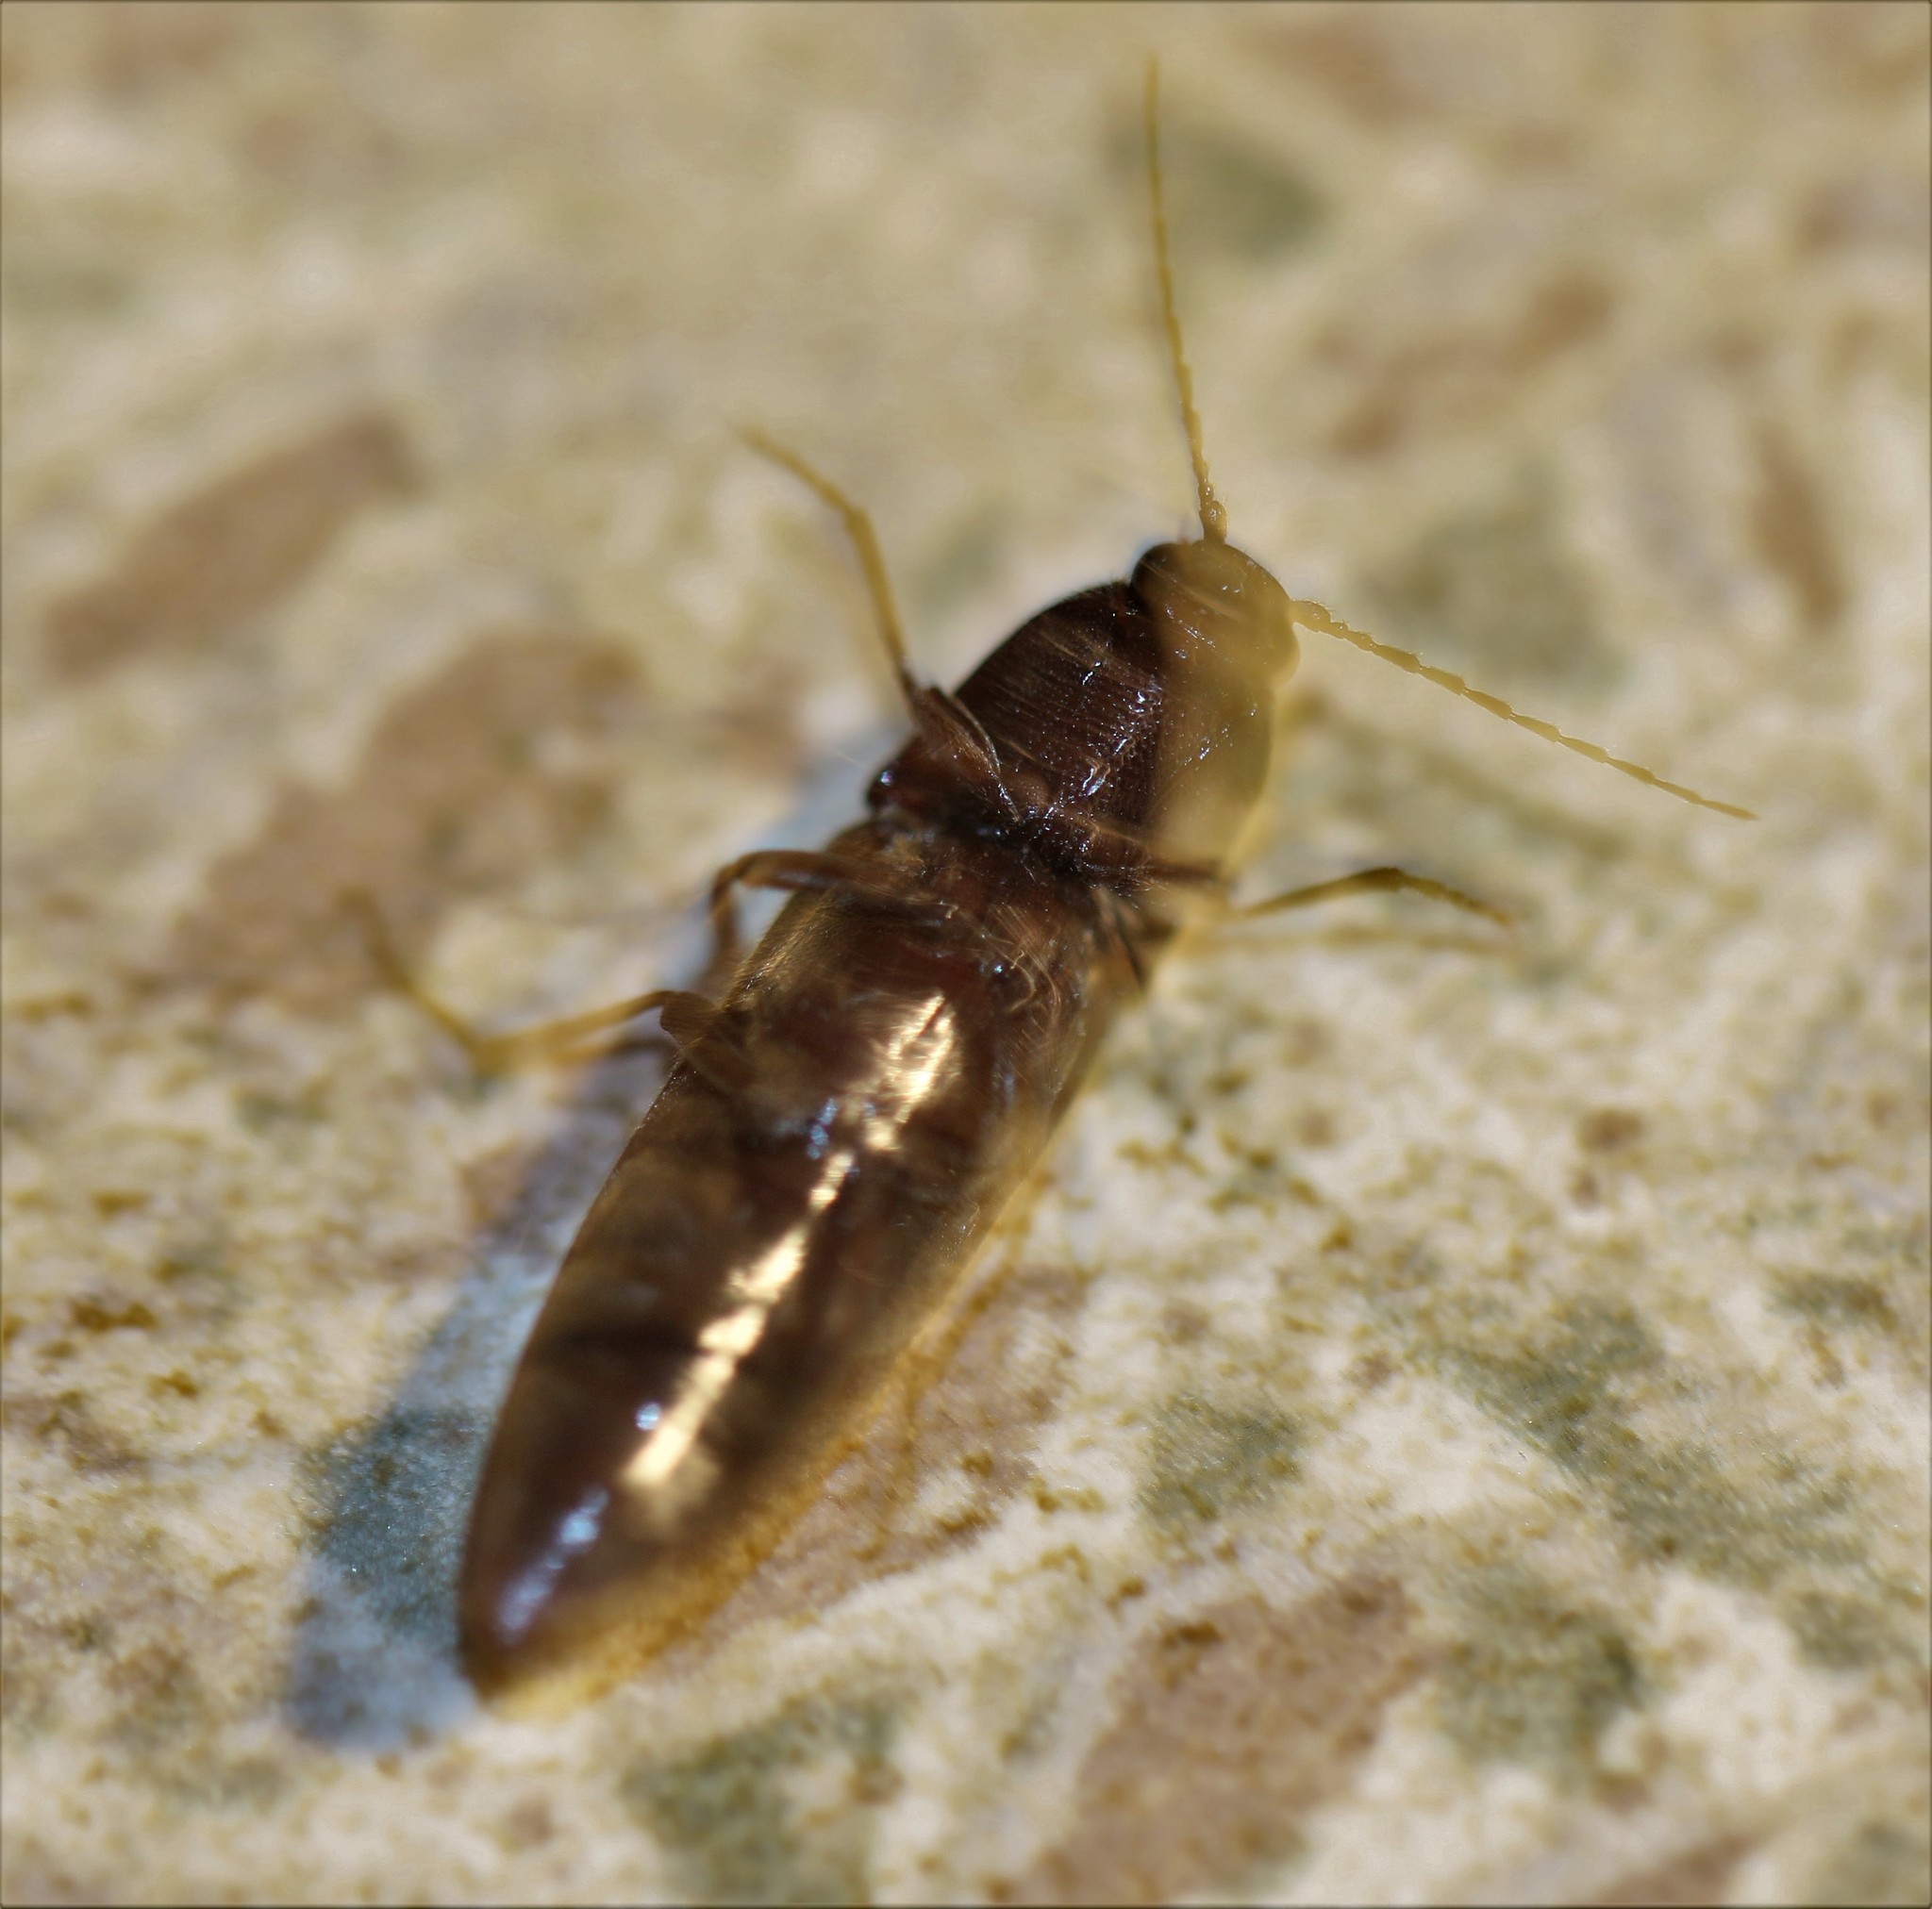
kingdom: Animalia
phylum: Arthropoda
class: Insecta
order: Coleoptera
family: Elateridae
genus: Melanotus
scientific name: Melanotus castanipes
